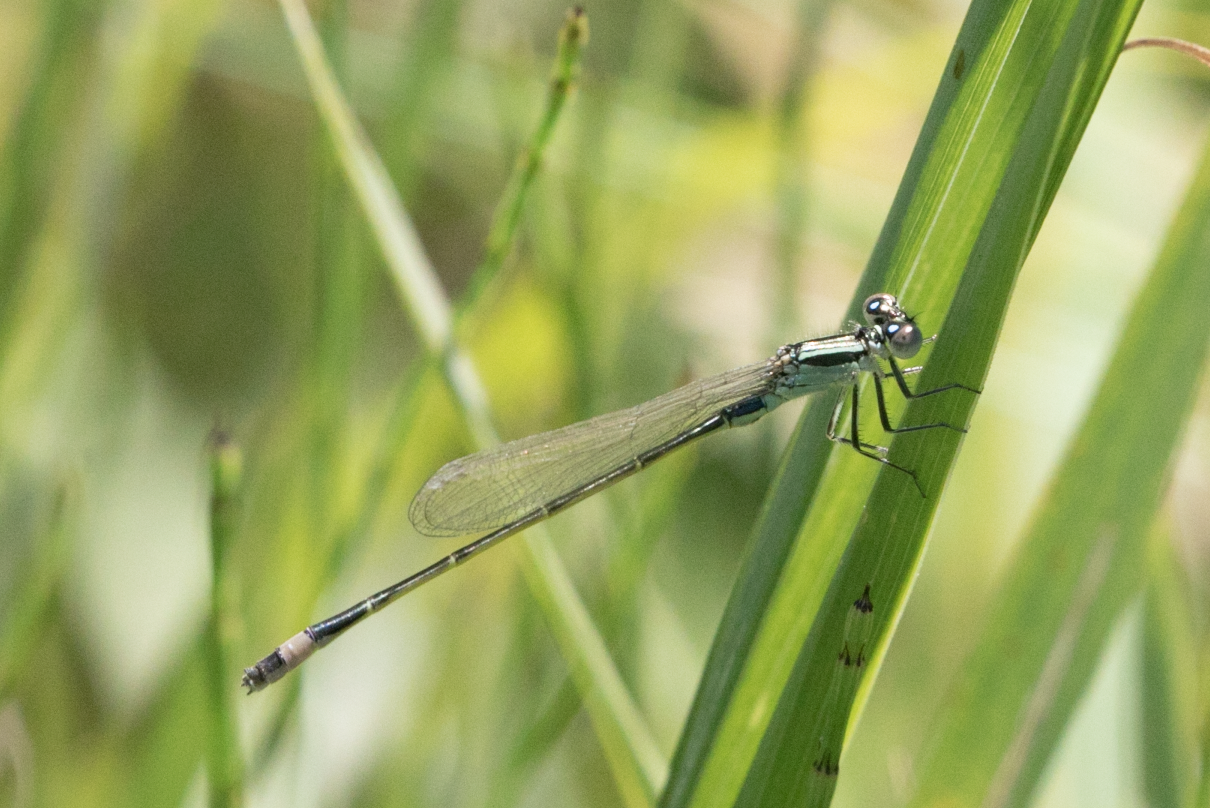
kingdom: Animalia
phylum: Arthropoda
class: Insecta
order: Odonata
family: Coenagrionidae
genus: Ischnura
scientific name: Ischnura elegans
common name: Blue-tailed damselfly
